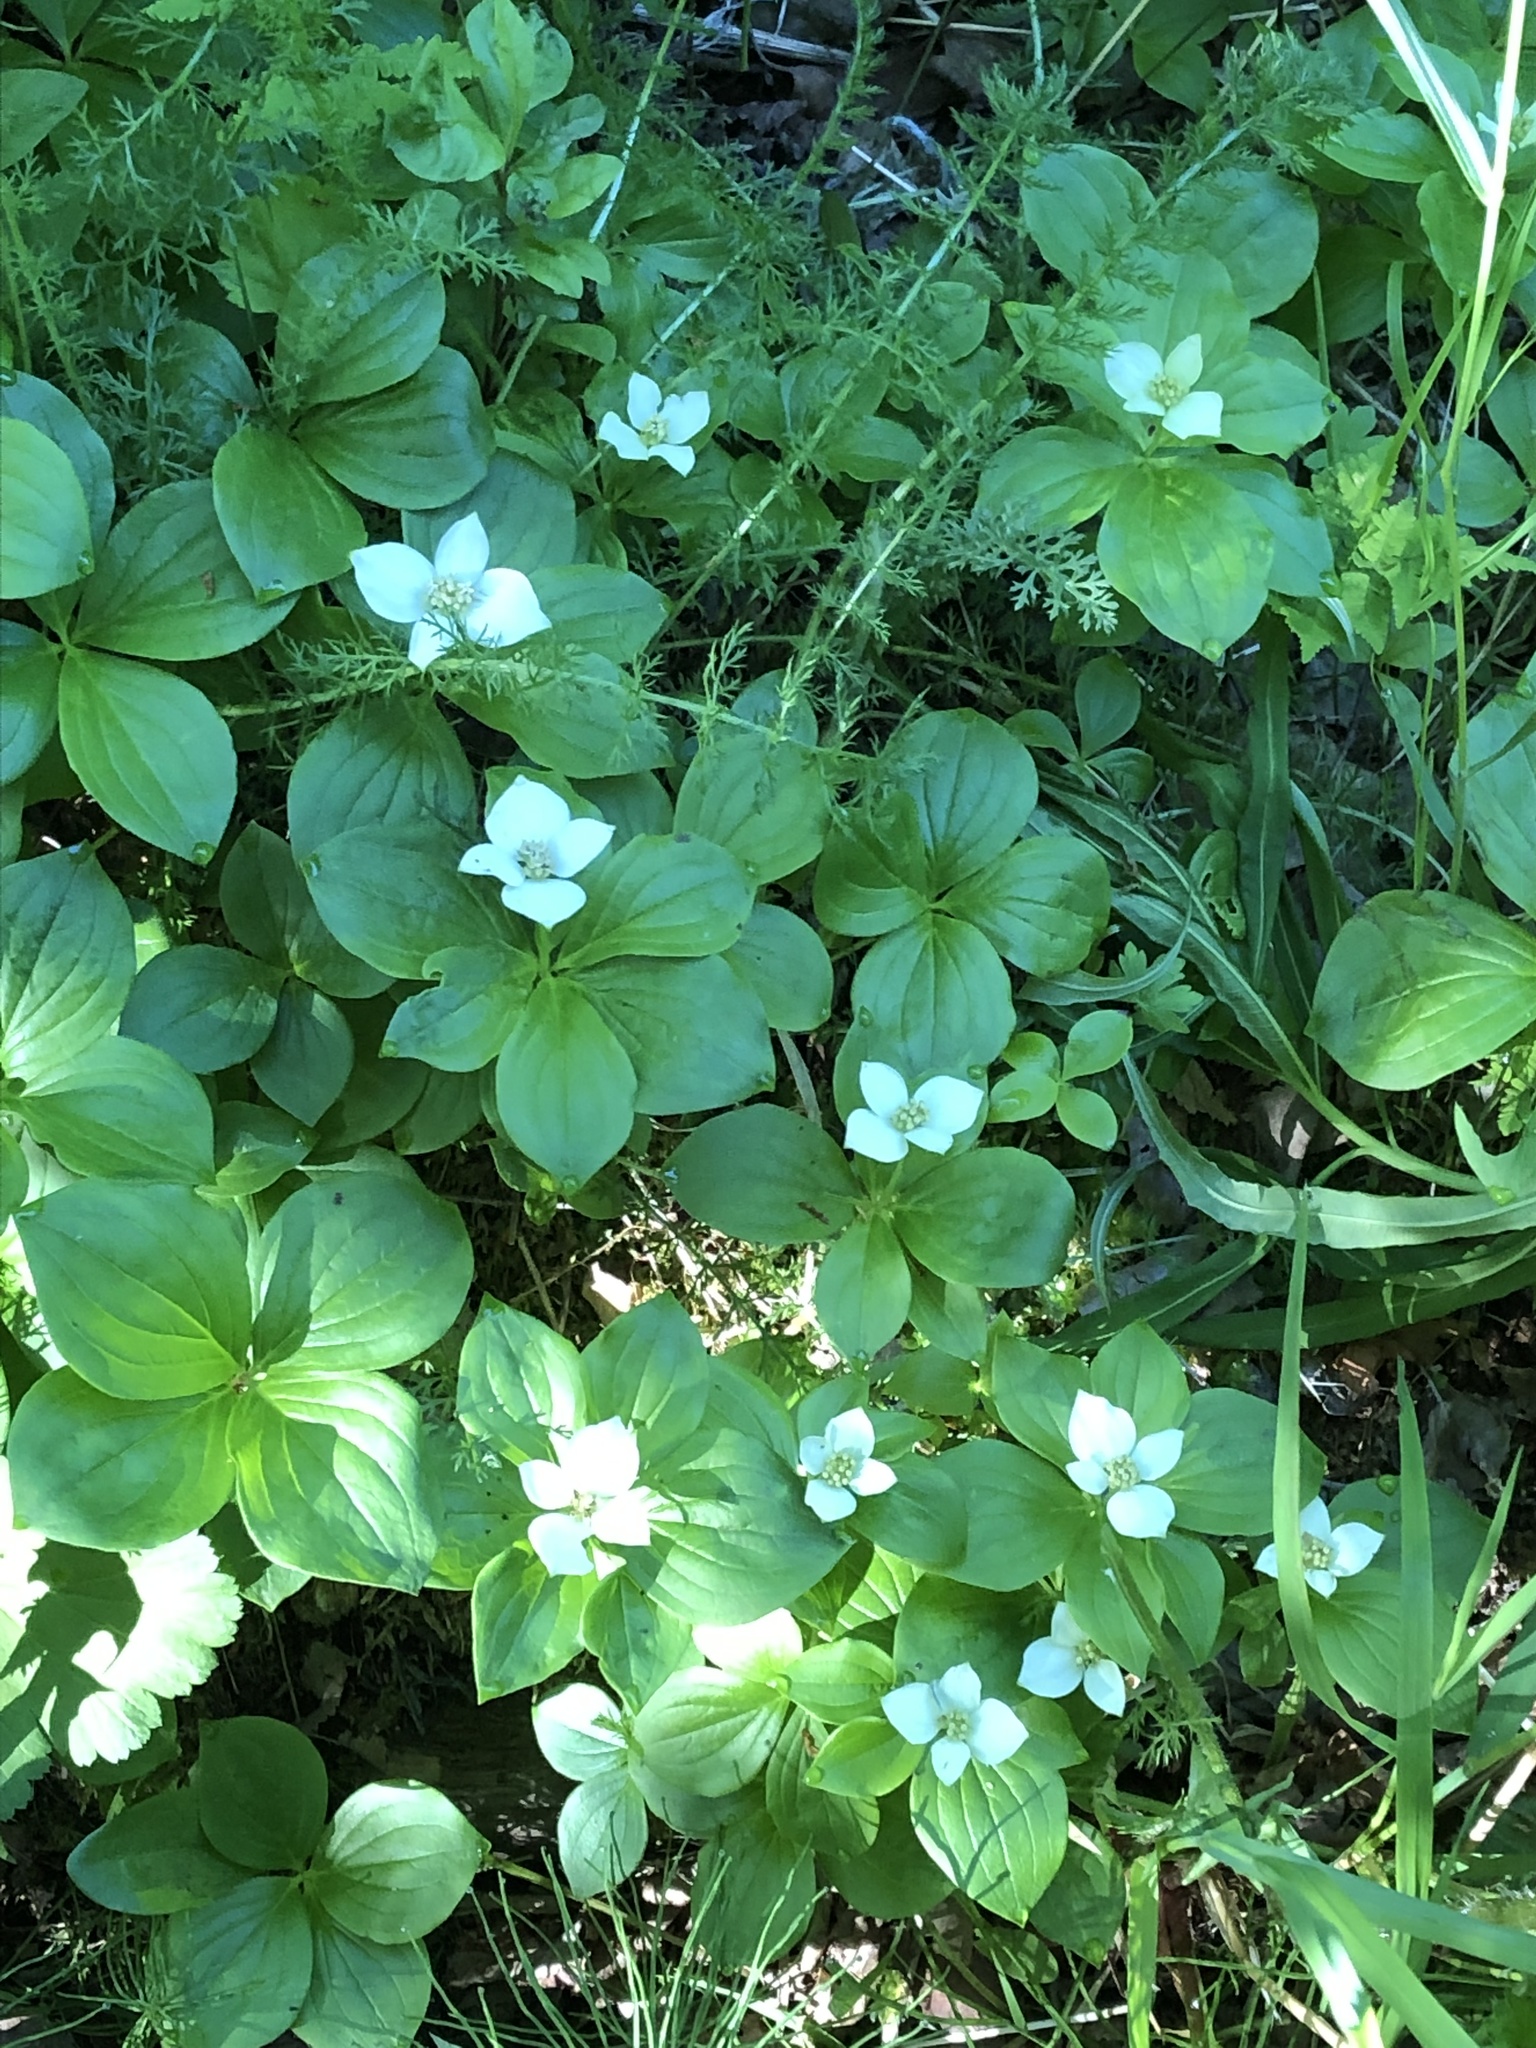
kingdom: Plantae
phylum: Tracheophyta
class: Magnoliopsida
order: Cornales
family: Cornaceae
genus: Cornus
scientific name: Cornus canadensis
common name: Creeping dogwood
